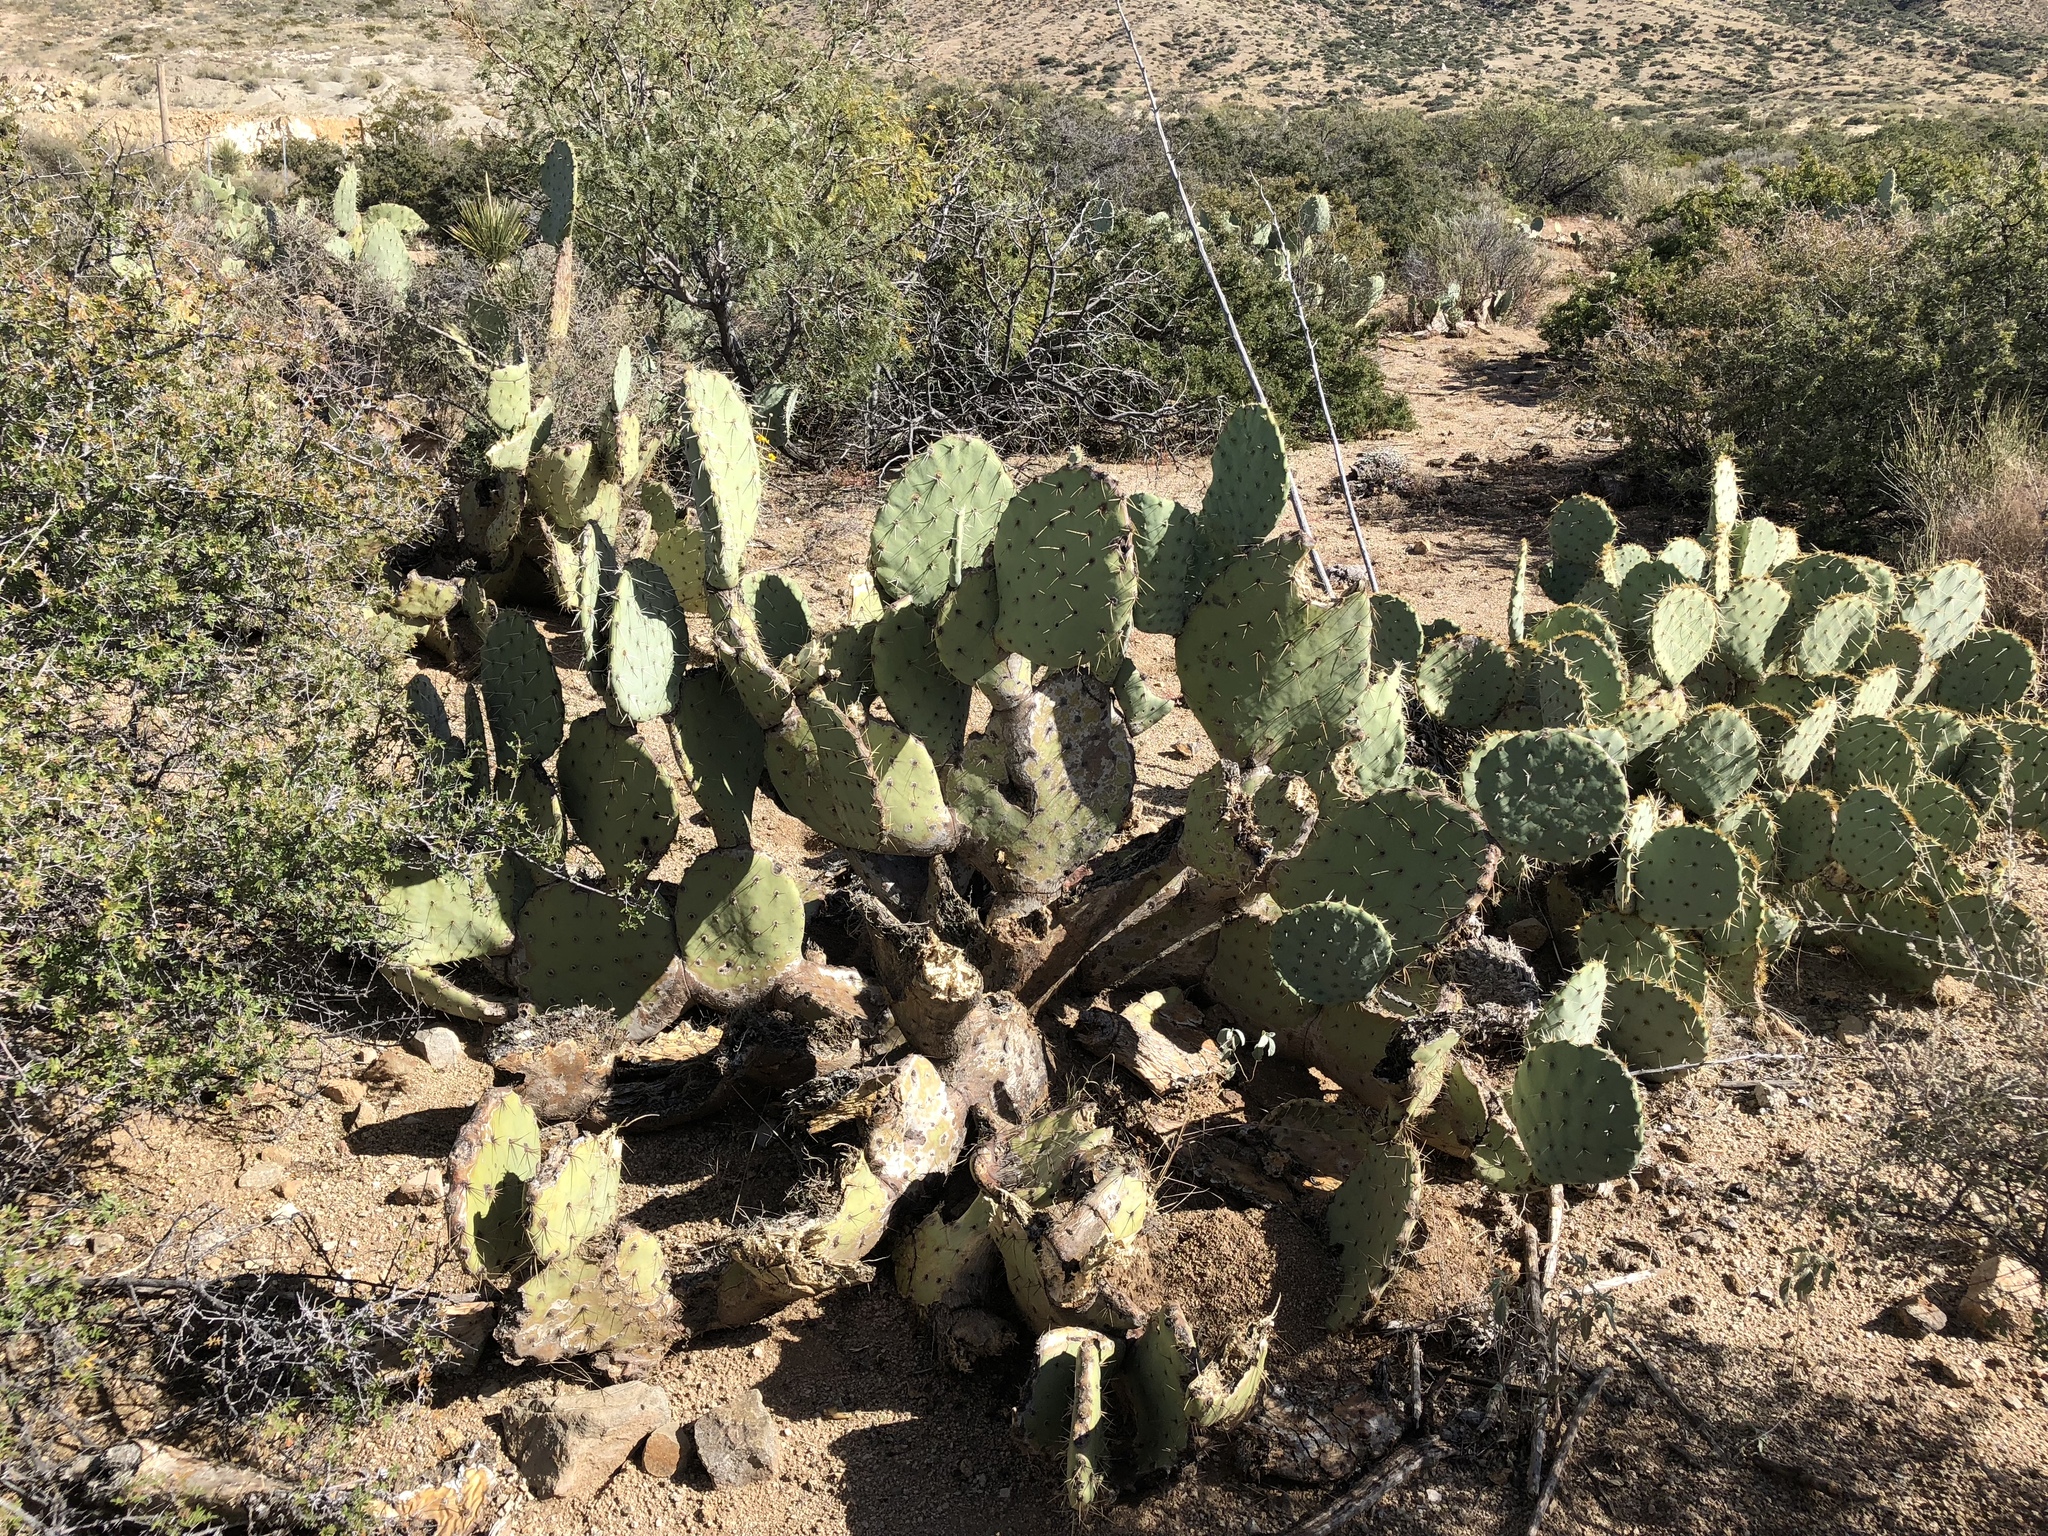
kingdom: Plantae
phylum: Tracheophyta
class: Magnoliopsida
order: Caryophyllales
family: Cactaceae
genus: Opuntia
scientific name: Opuntia engelmannii
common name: Cactus-apple
